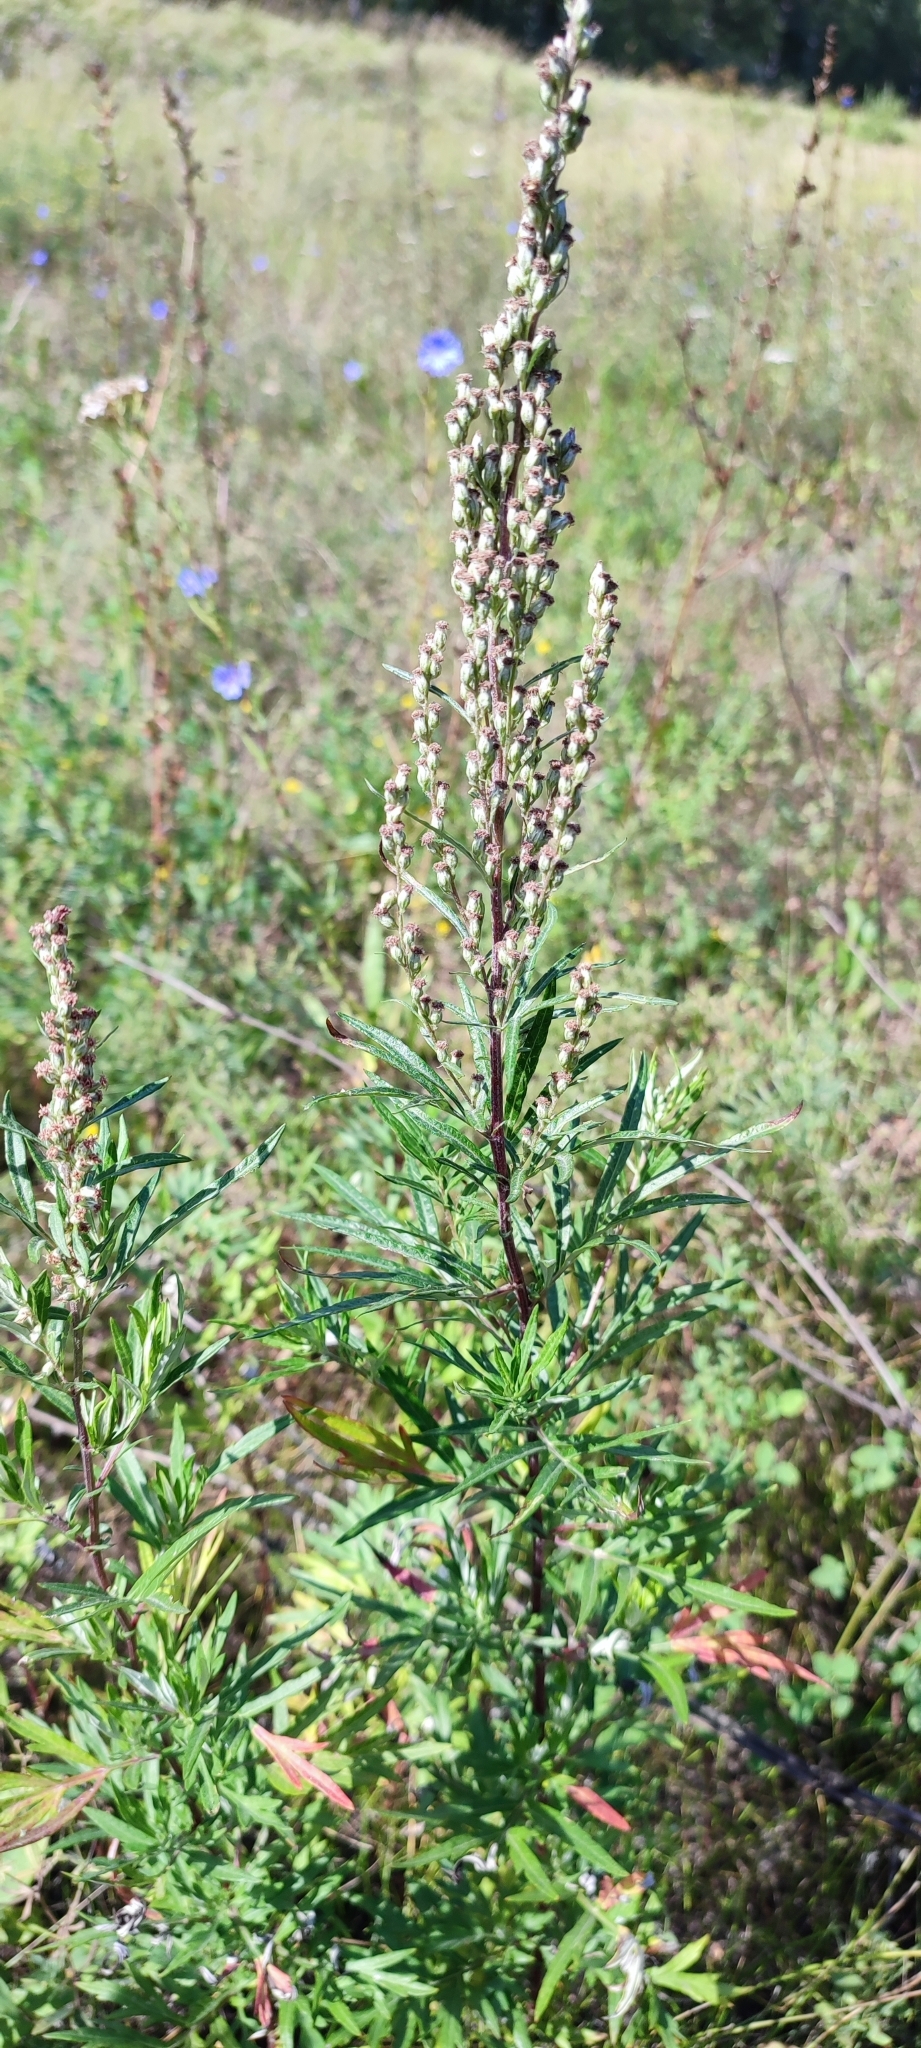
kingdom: Plantae
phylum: Tracheophyta
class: Magnoliopsida
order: Asterales
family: Asteraceae
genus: Artemisia
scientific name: Artemisia vulgaris
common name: Mugwort
